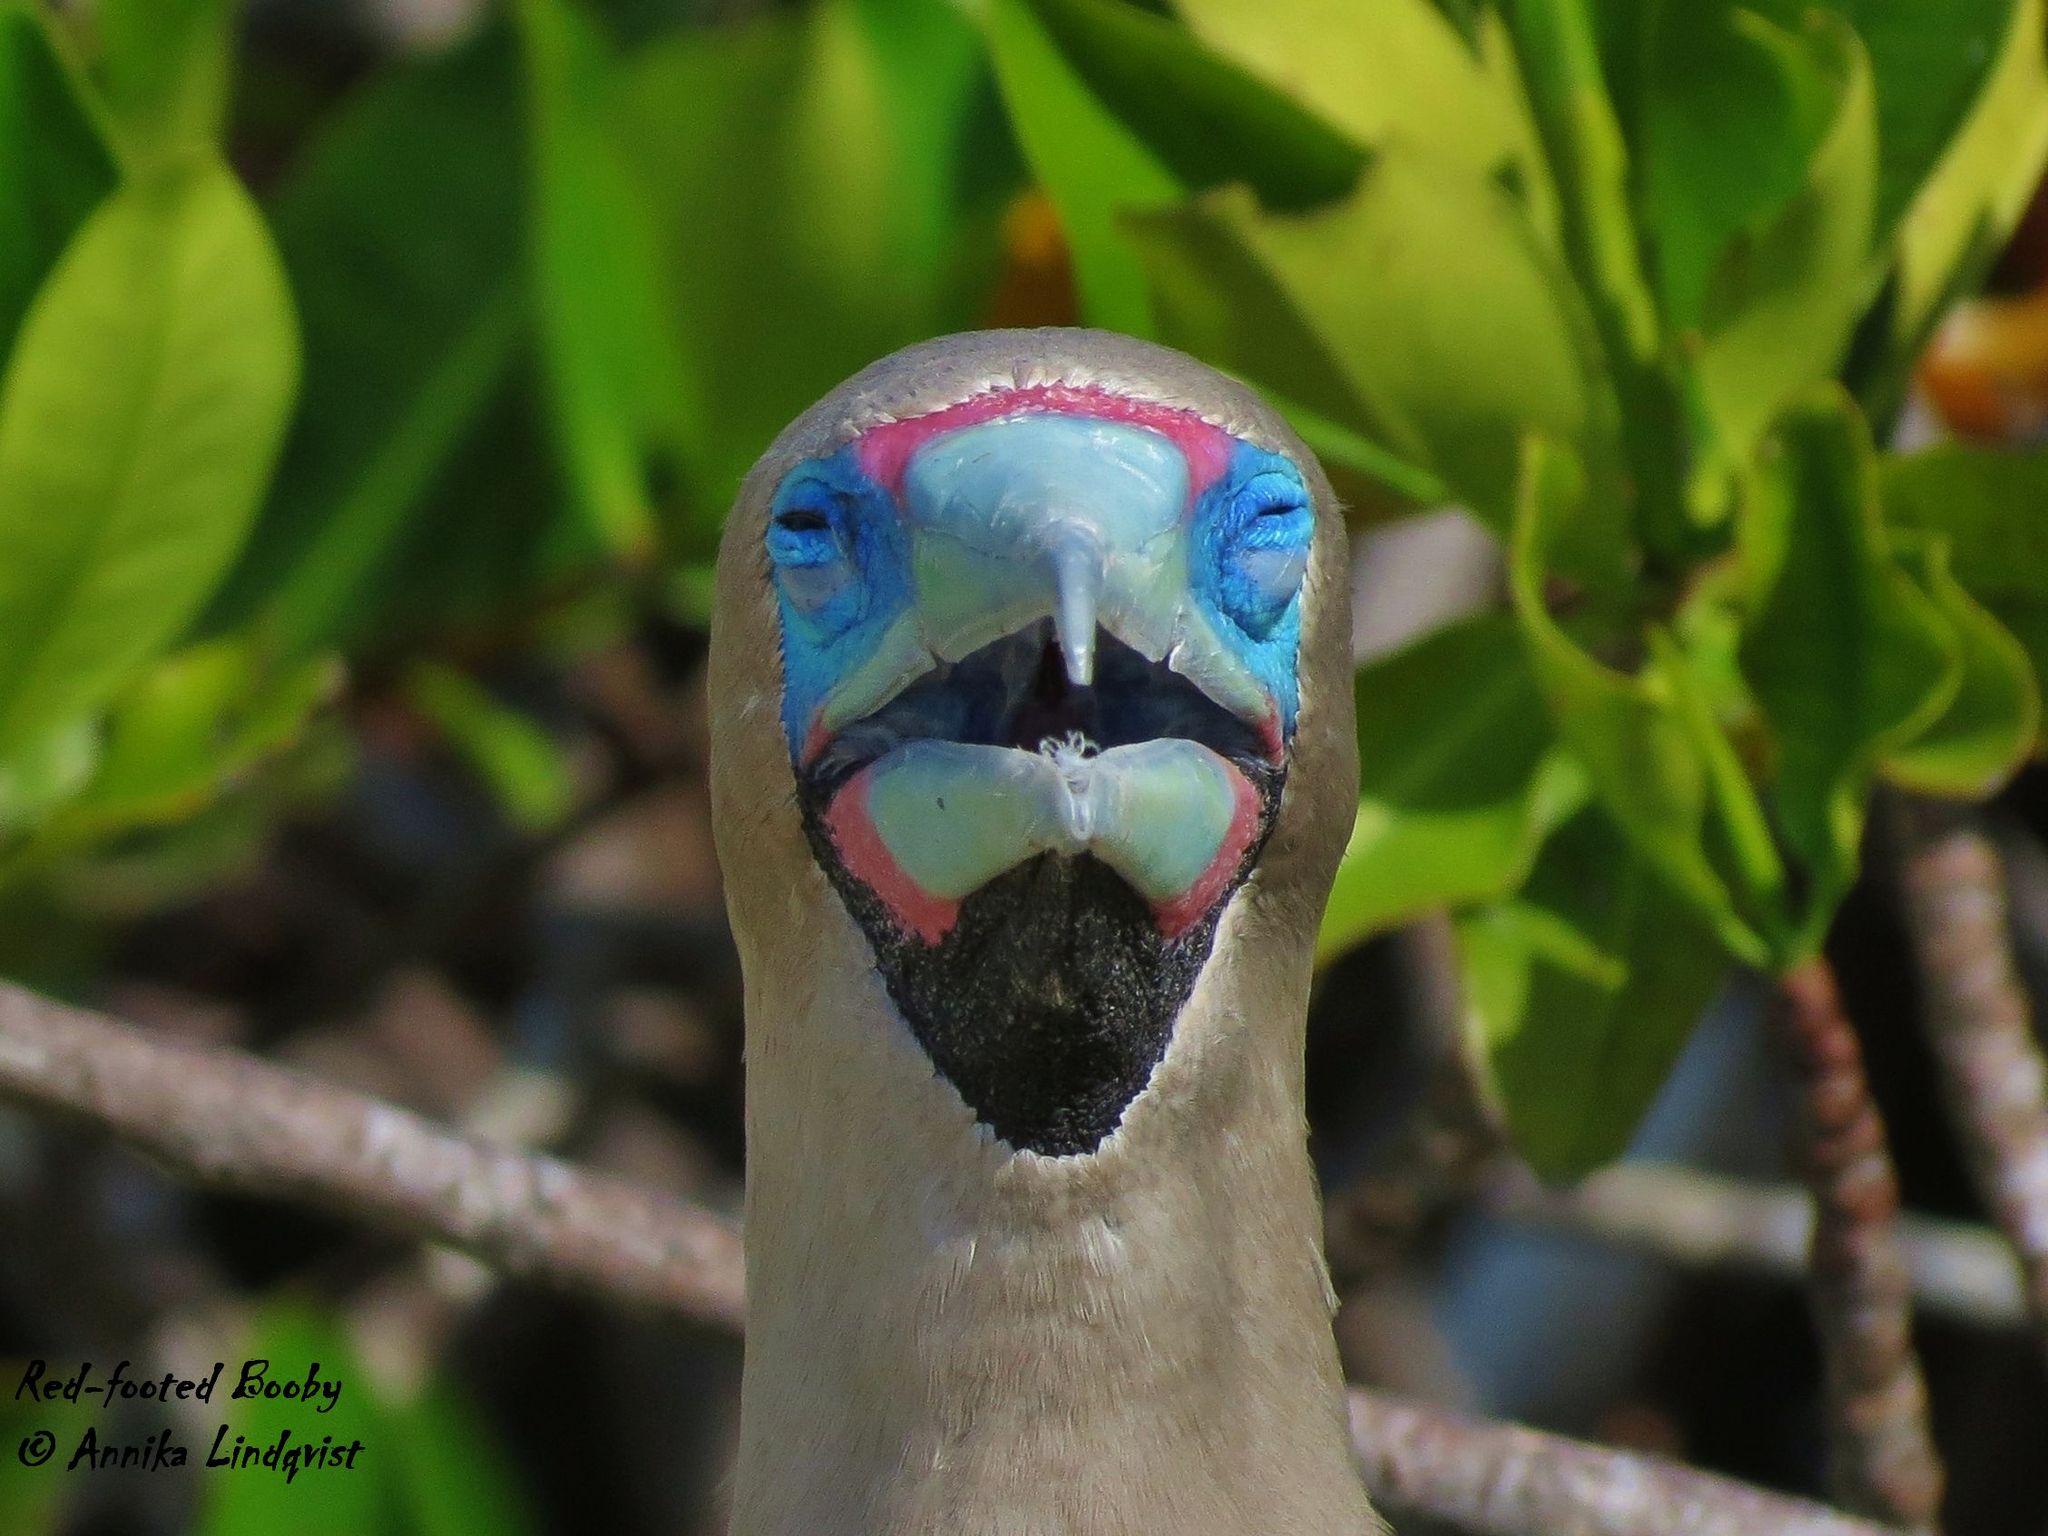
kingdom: Animalia
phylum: Chordata
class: Aves
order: Suliformes
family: Sulidae
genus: Sula
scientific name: Sula sula
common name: Red-footed booby
